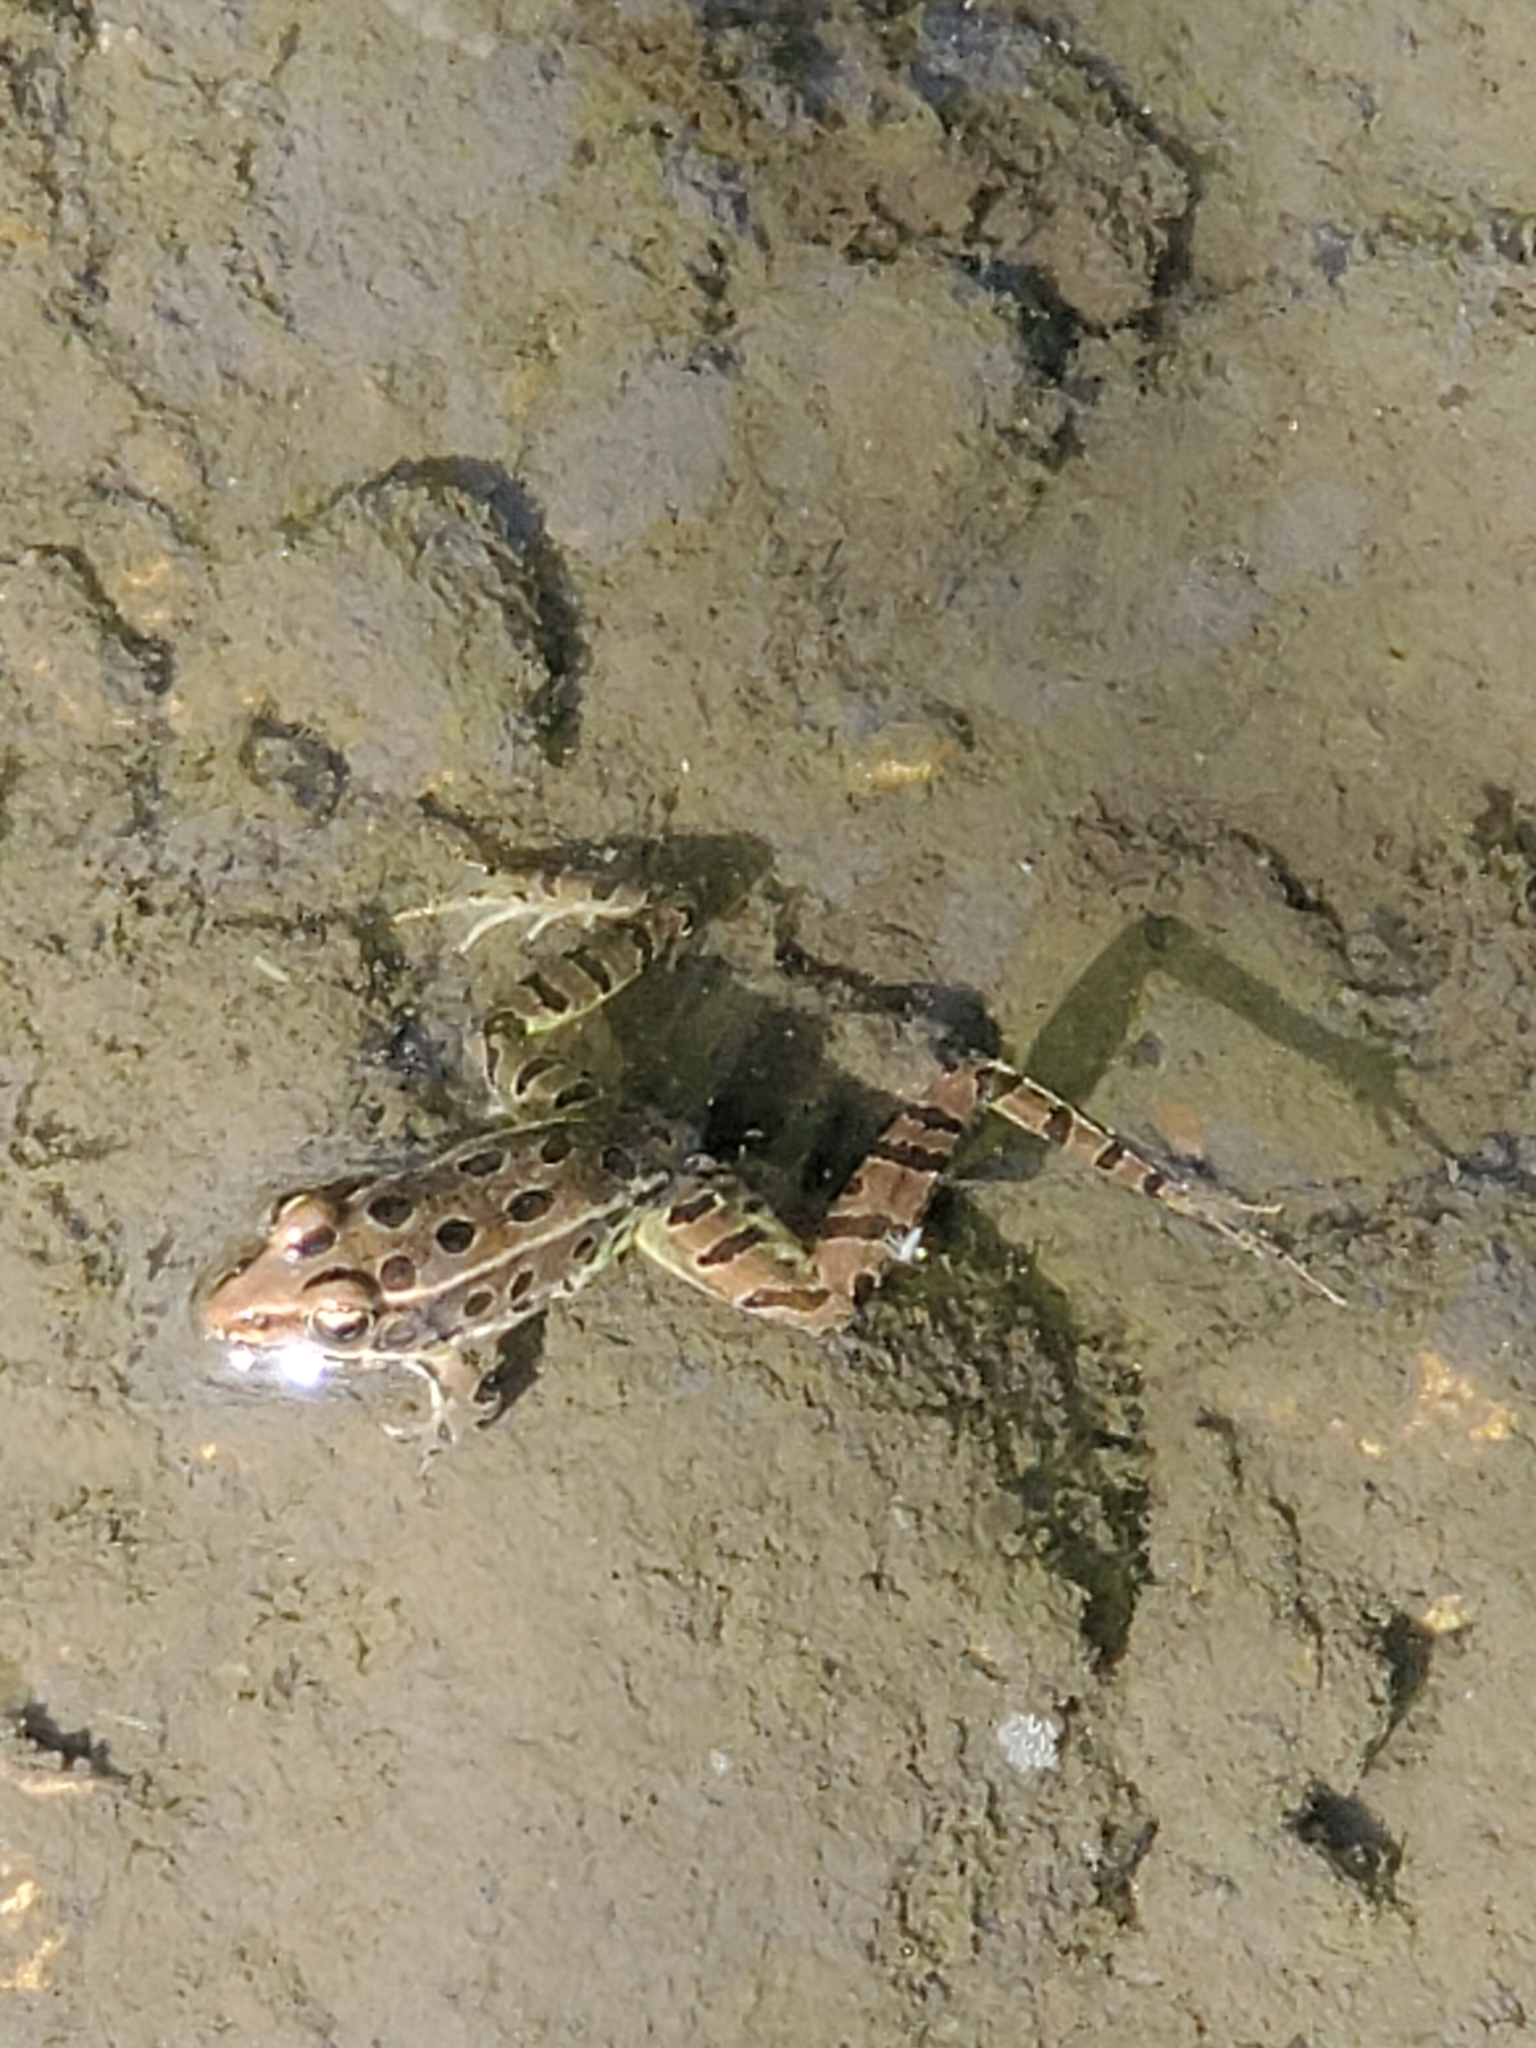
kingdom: Animalia
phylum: Chordata
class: Amphibia
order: Anura
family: Ranidae
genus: Lithobates
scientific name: Lithobates pipiens
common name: Northern leopard frog
